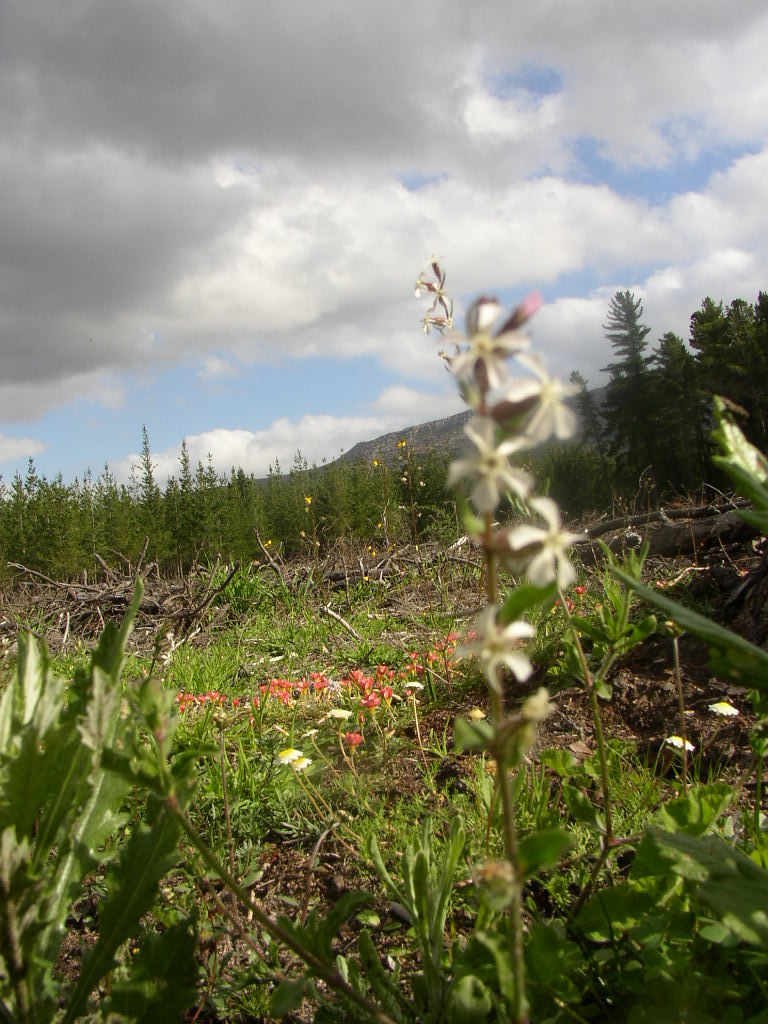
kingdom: Plantae
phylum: Tracheophyta
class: Magnoliopsida
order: Caryophyllales
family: Caryophyllaceae
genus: Silene
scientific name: Silene gallica
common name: Small-flowered catchfly
